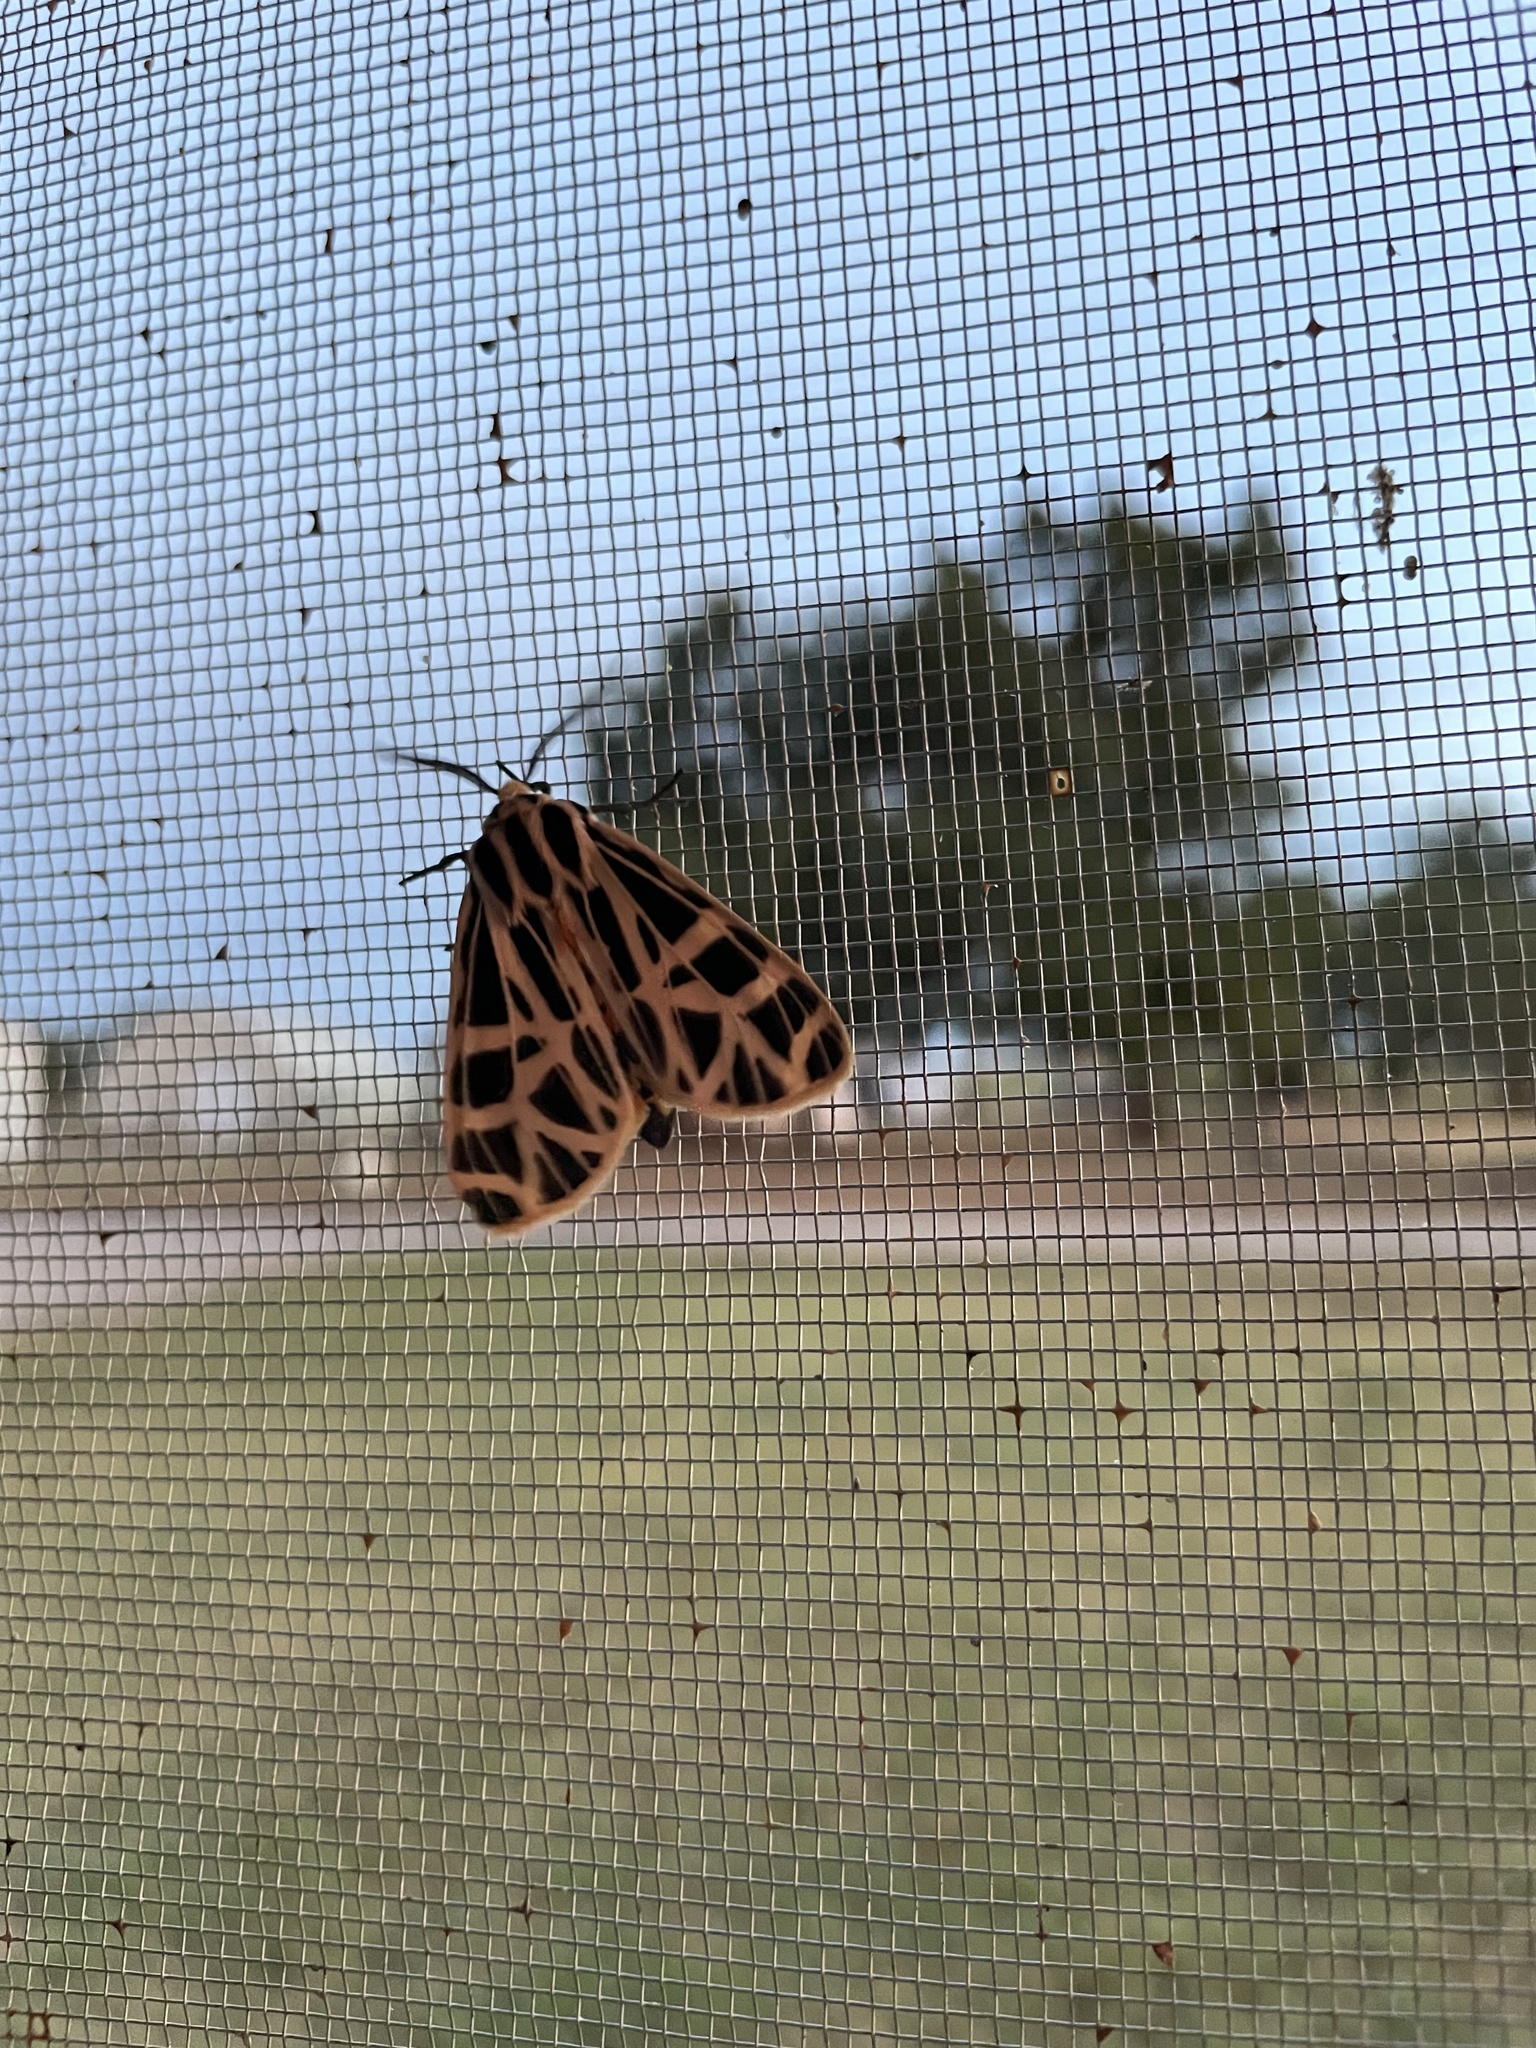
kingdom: Animalia
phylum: Arthropoda
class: Insecta
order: Lepidoptera
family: Erebidae
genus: Grammia
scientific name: Grammia parthenice
